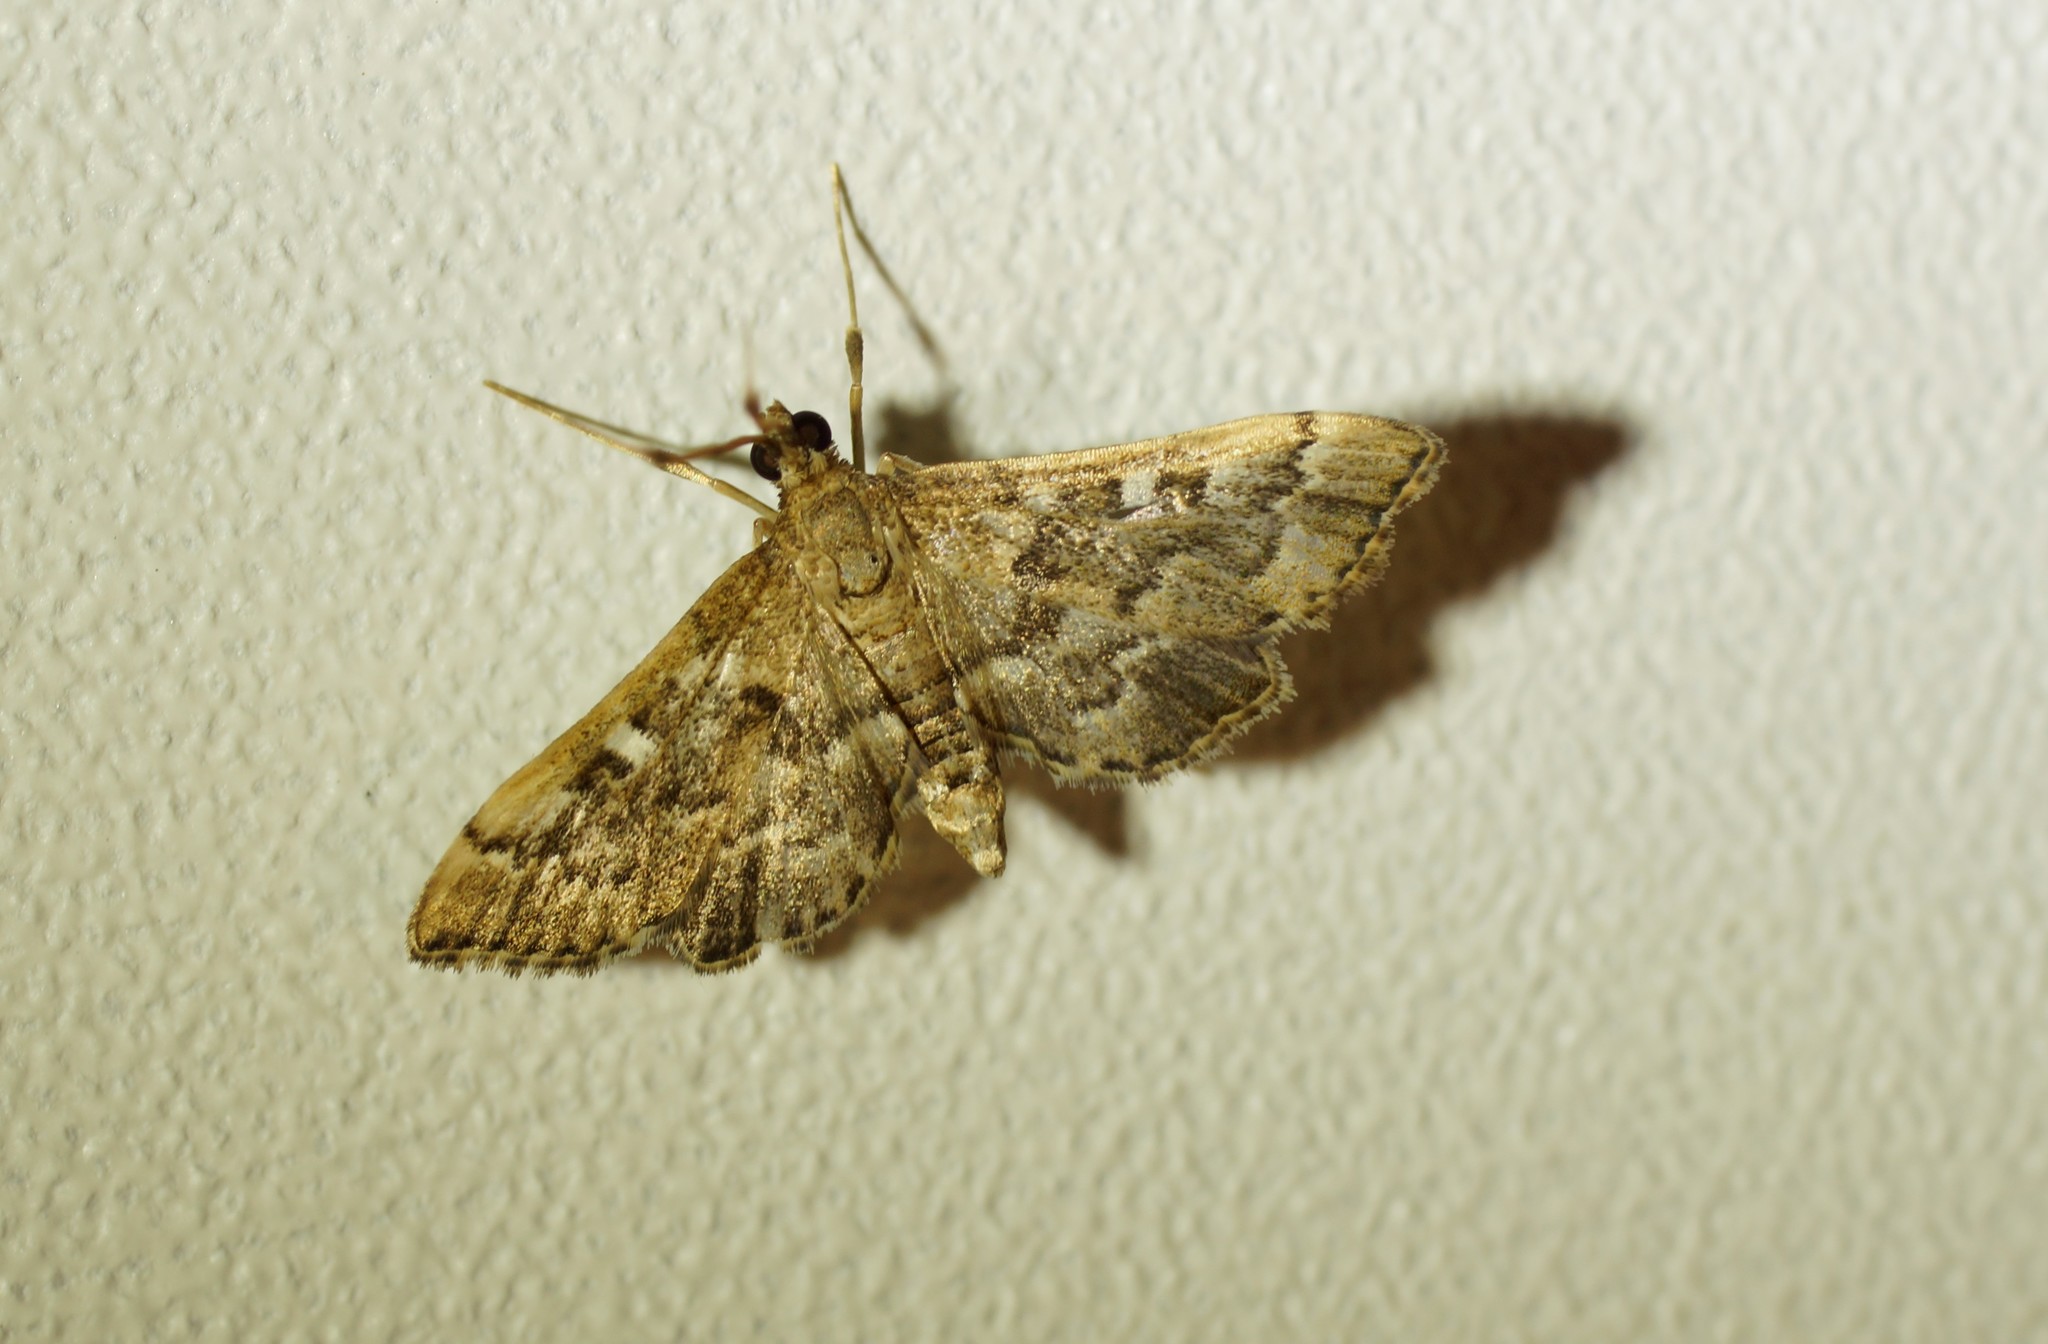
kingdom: Animalia
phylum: Arthropoda
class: Insecta
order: Lepidoptera
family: Crambidae
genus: Nacoleia
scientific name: Nacoleia rhoeoalis
